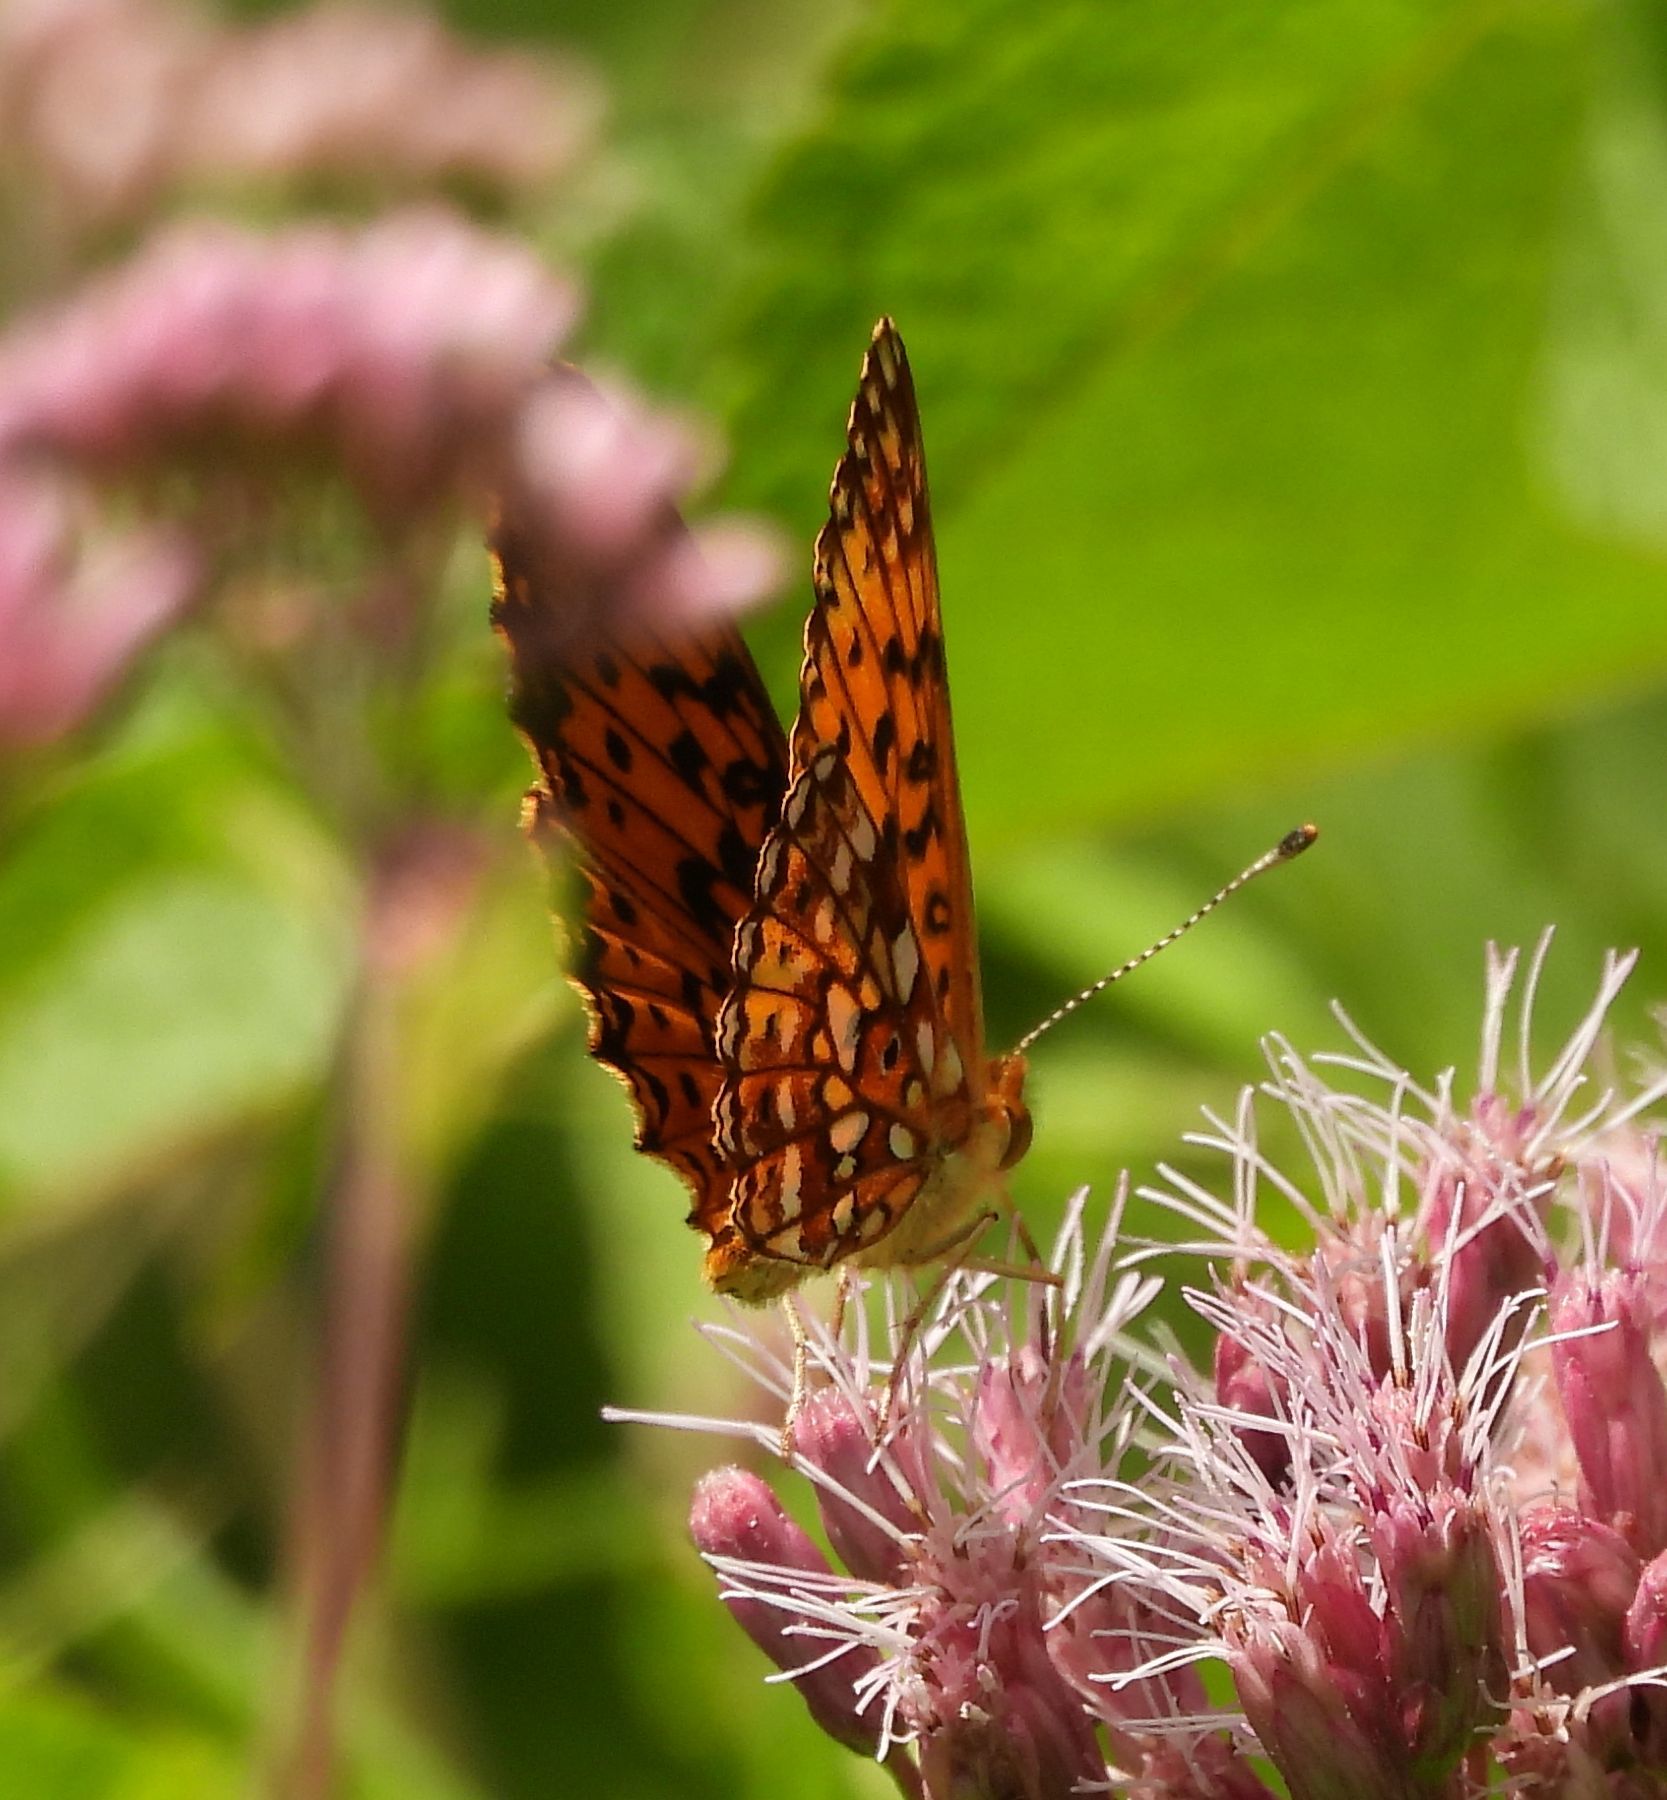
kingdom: Animalia
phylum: Arthropoda
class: Insecta
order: Lepidoptera
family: Nymphalidae
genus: Boloria
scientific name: Boloria
